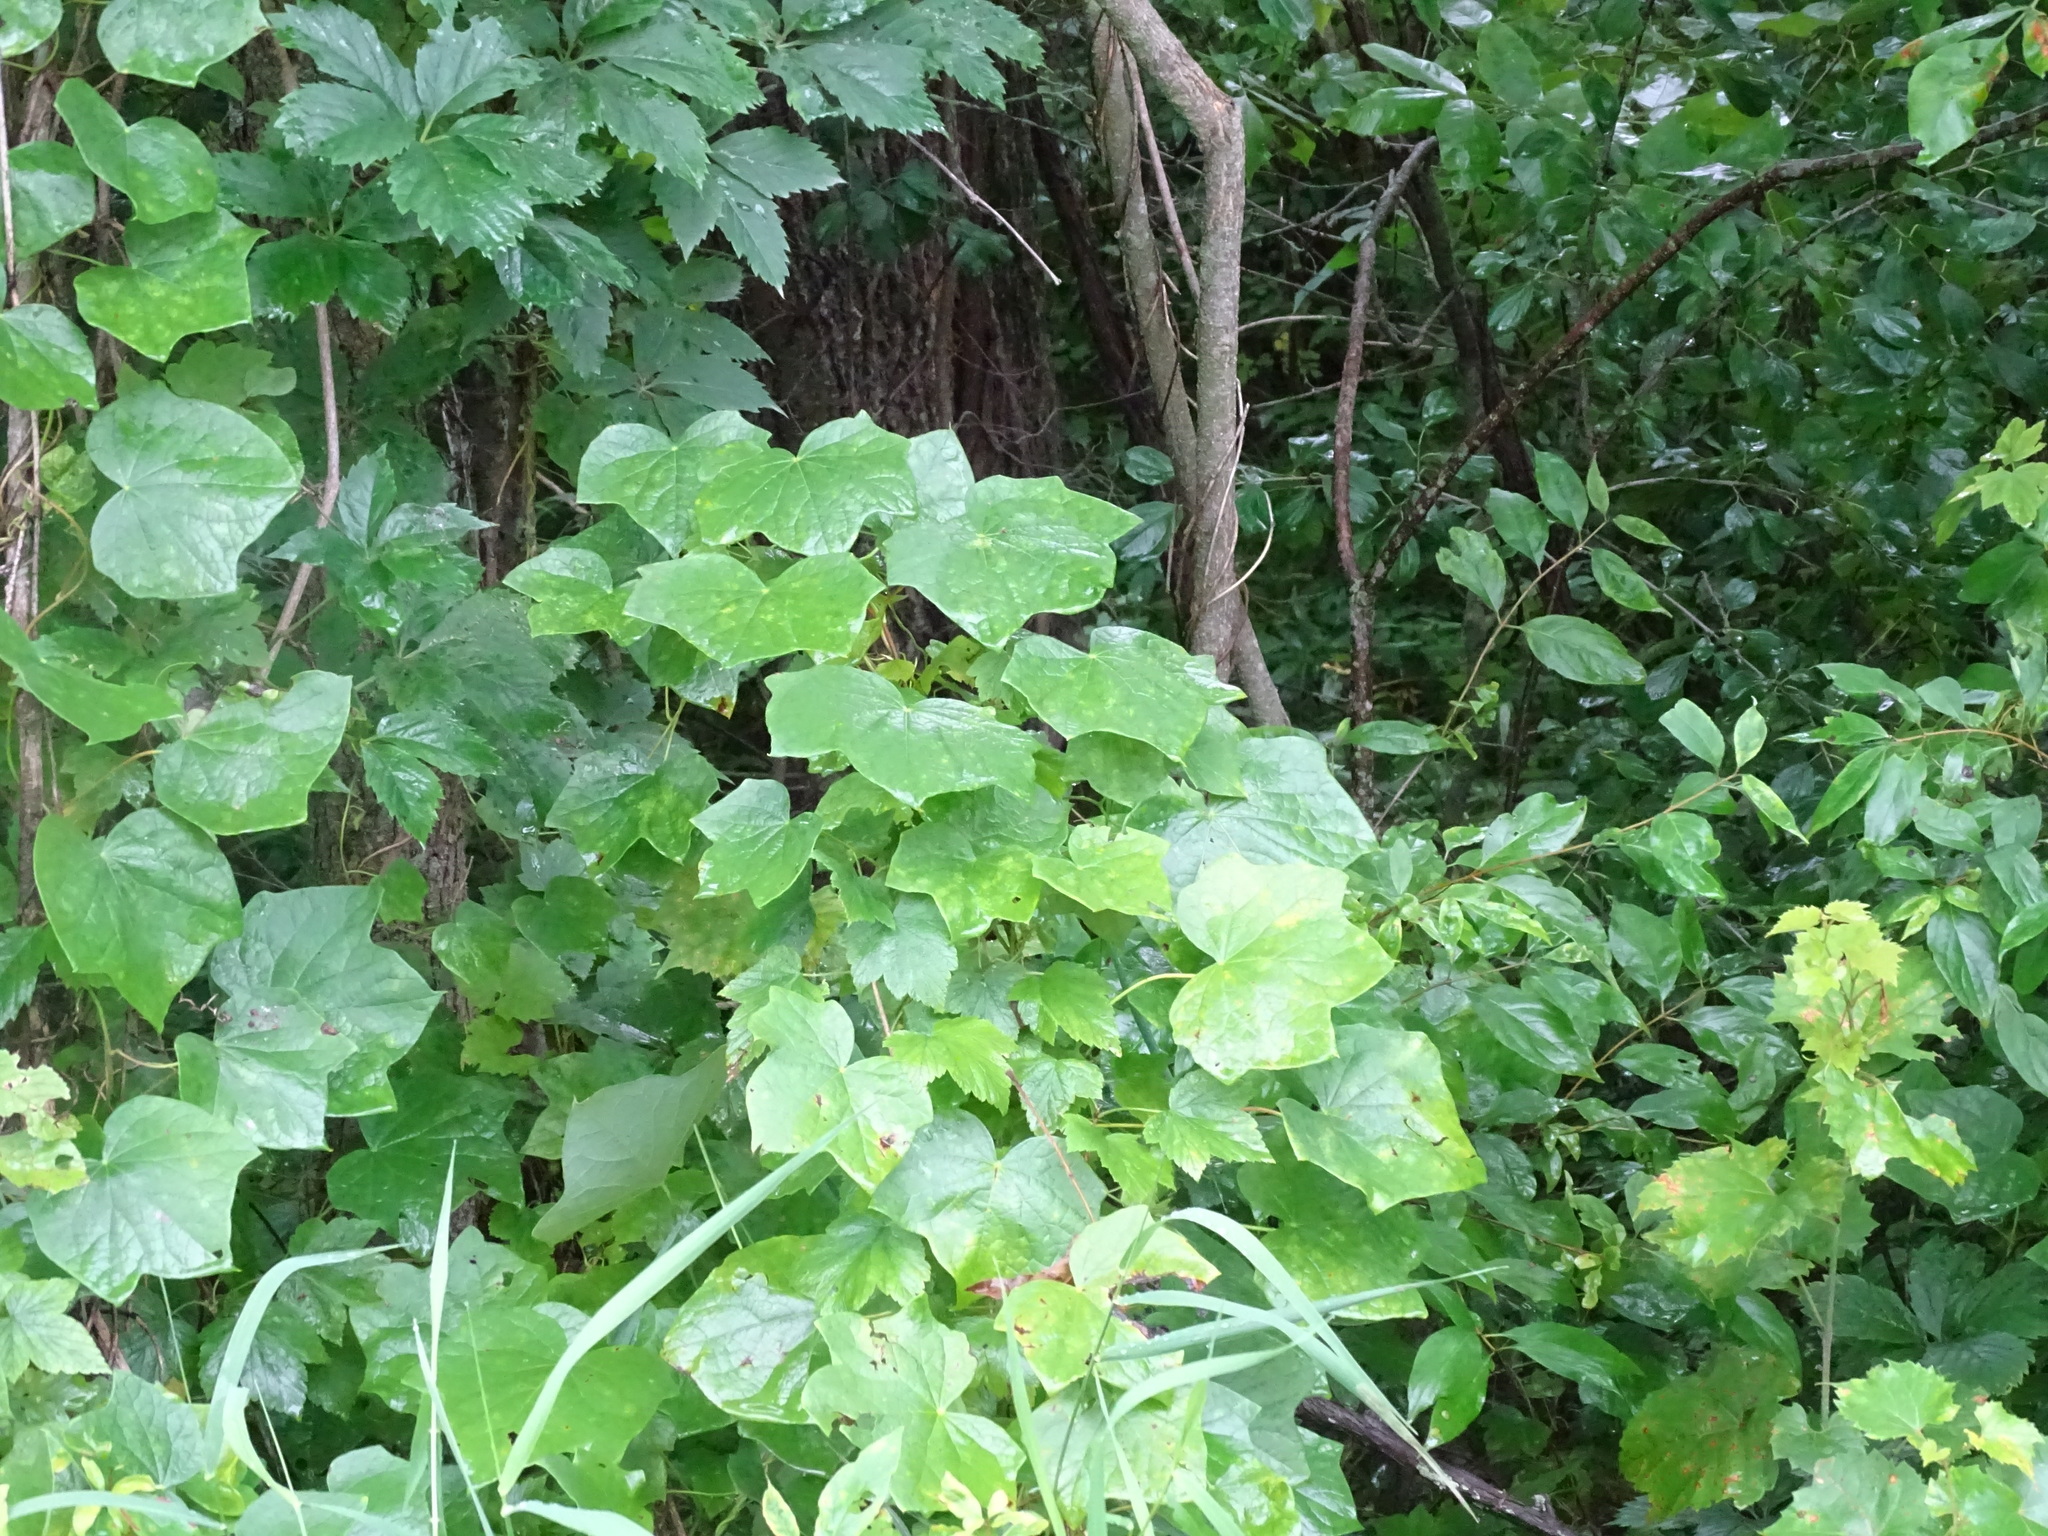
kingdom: Plantae
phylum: Tracheophyta
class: Magnoliopsida
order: Ranunculales
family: Menispermaceae
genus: Menispermum
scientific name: Menispermum canadense
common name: Moonseed
